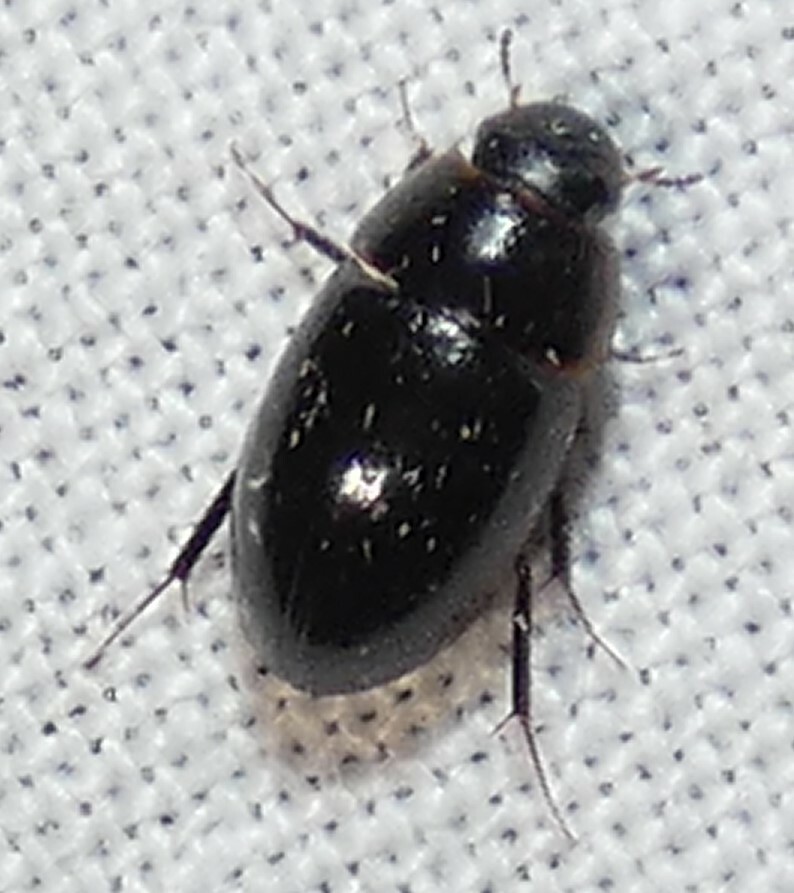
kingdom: Animalia
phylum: Arthropoda
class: Insecta
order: Coleoptera
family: Hydrophilidae
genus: Enochrus
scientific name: Enochrus
